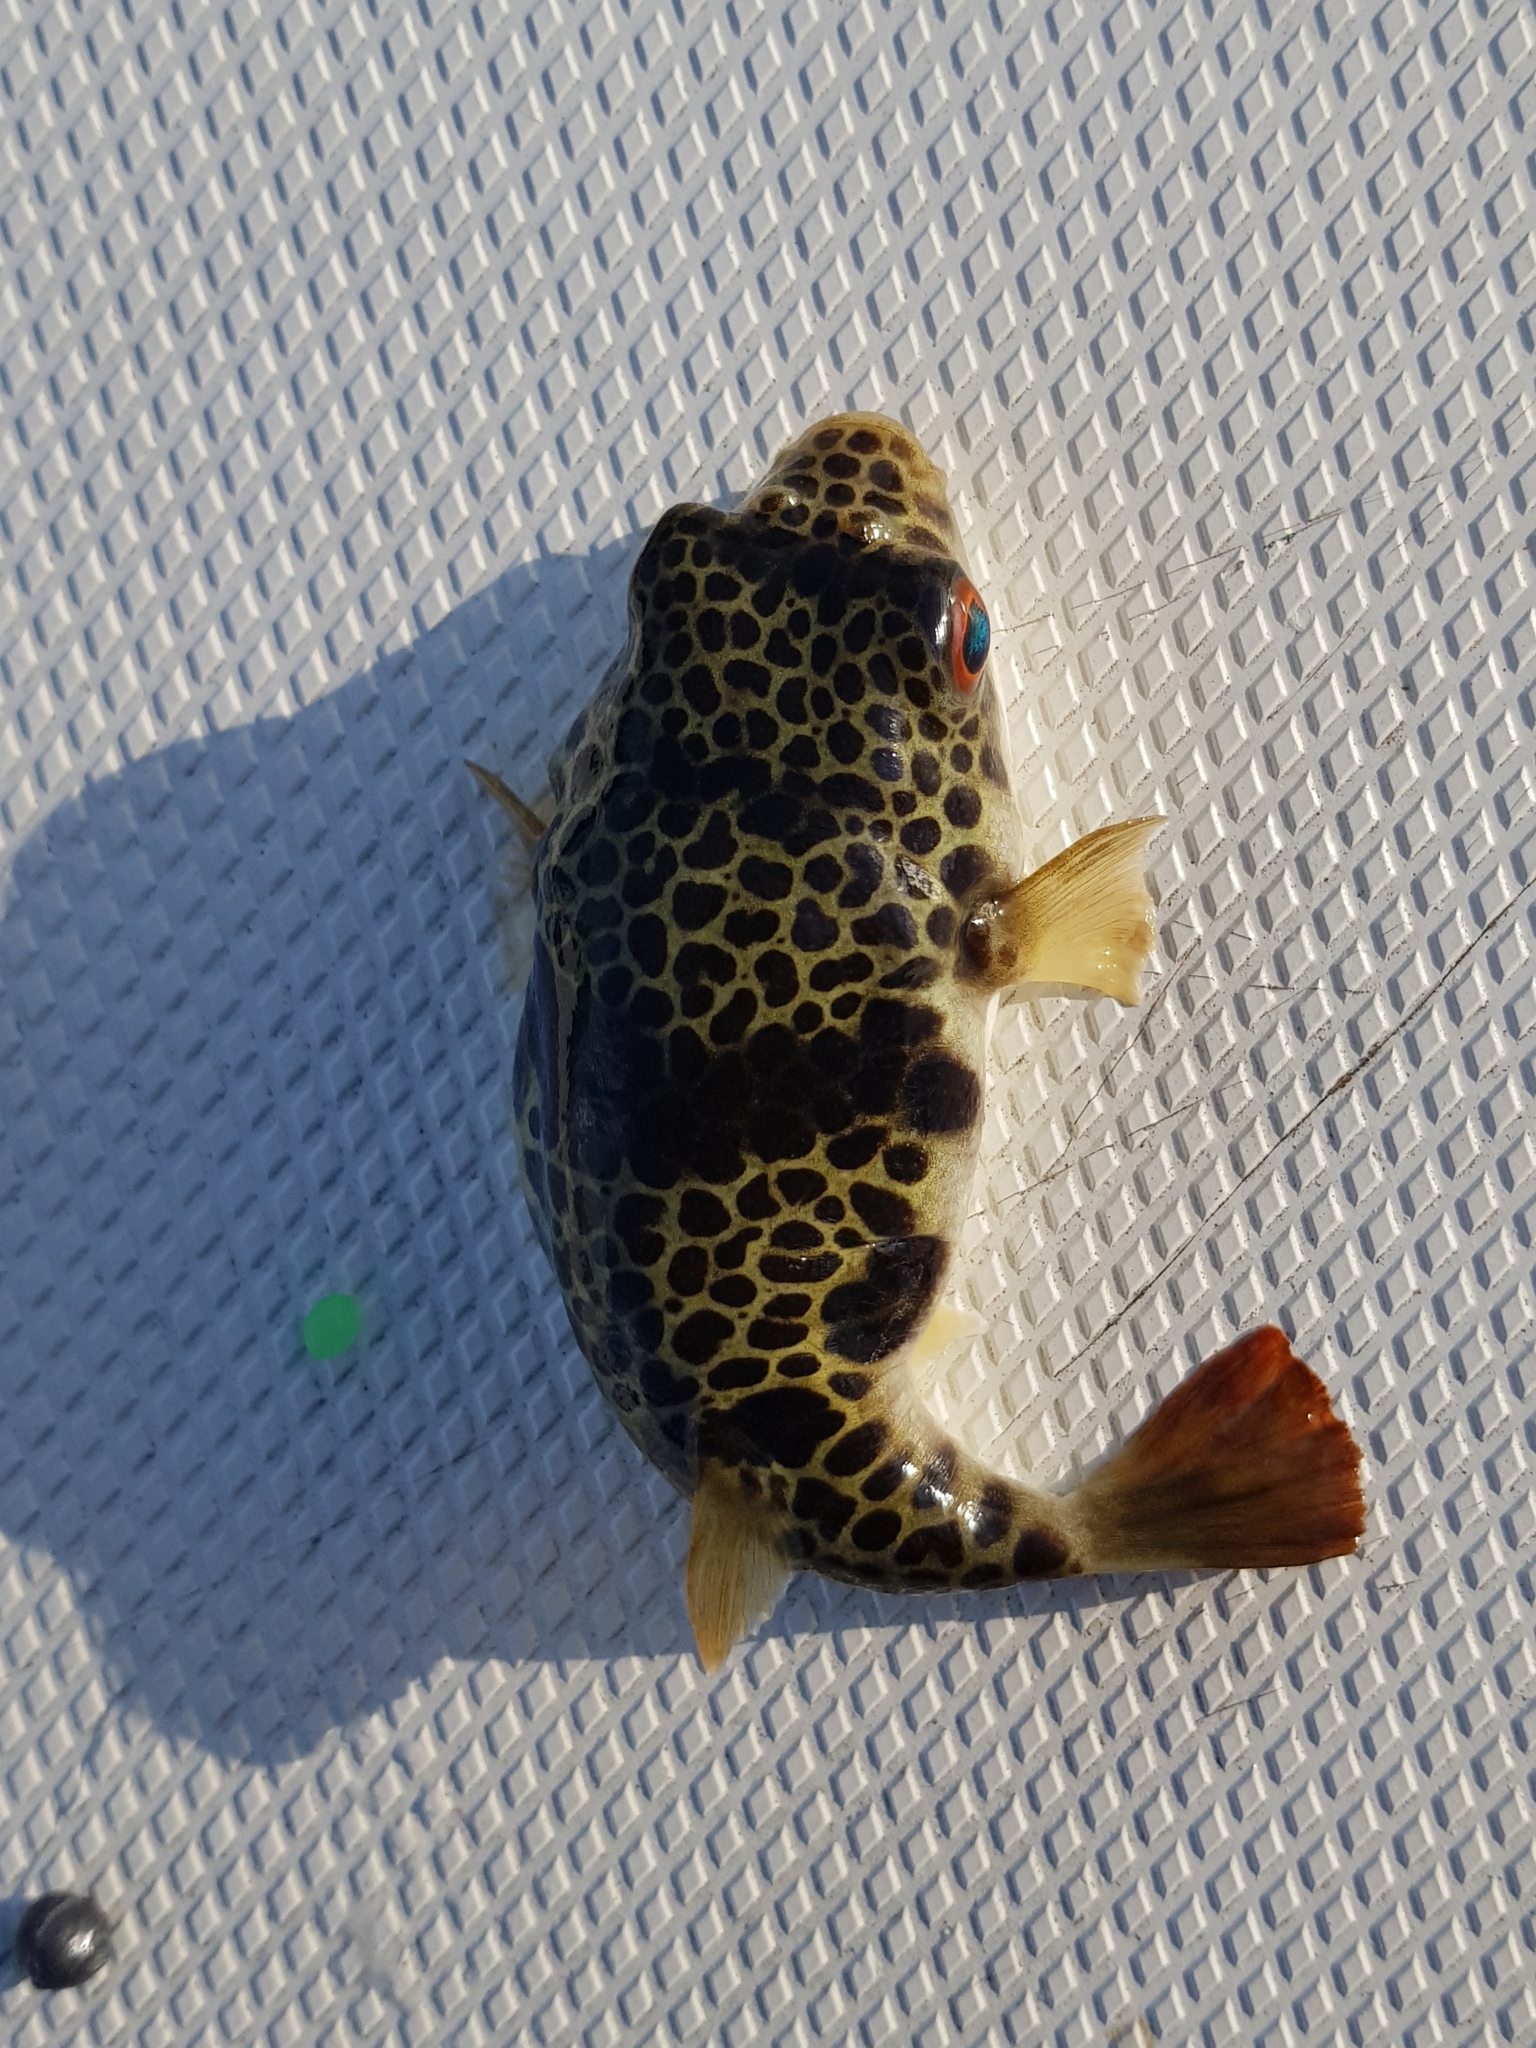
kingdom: Animalia
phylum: Chordata
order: Tetraodontiformes
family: Tetraodontidae
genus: Tetractenos
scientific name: Tetractenos glaber
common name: Smooth toadfish
